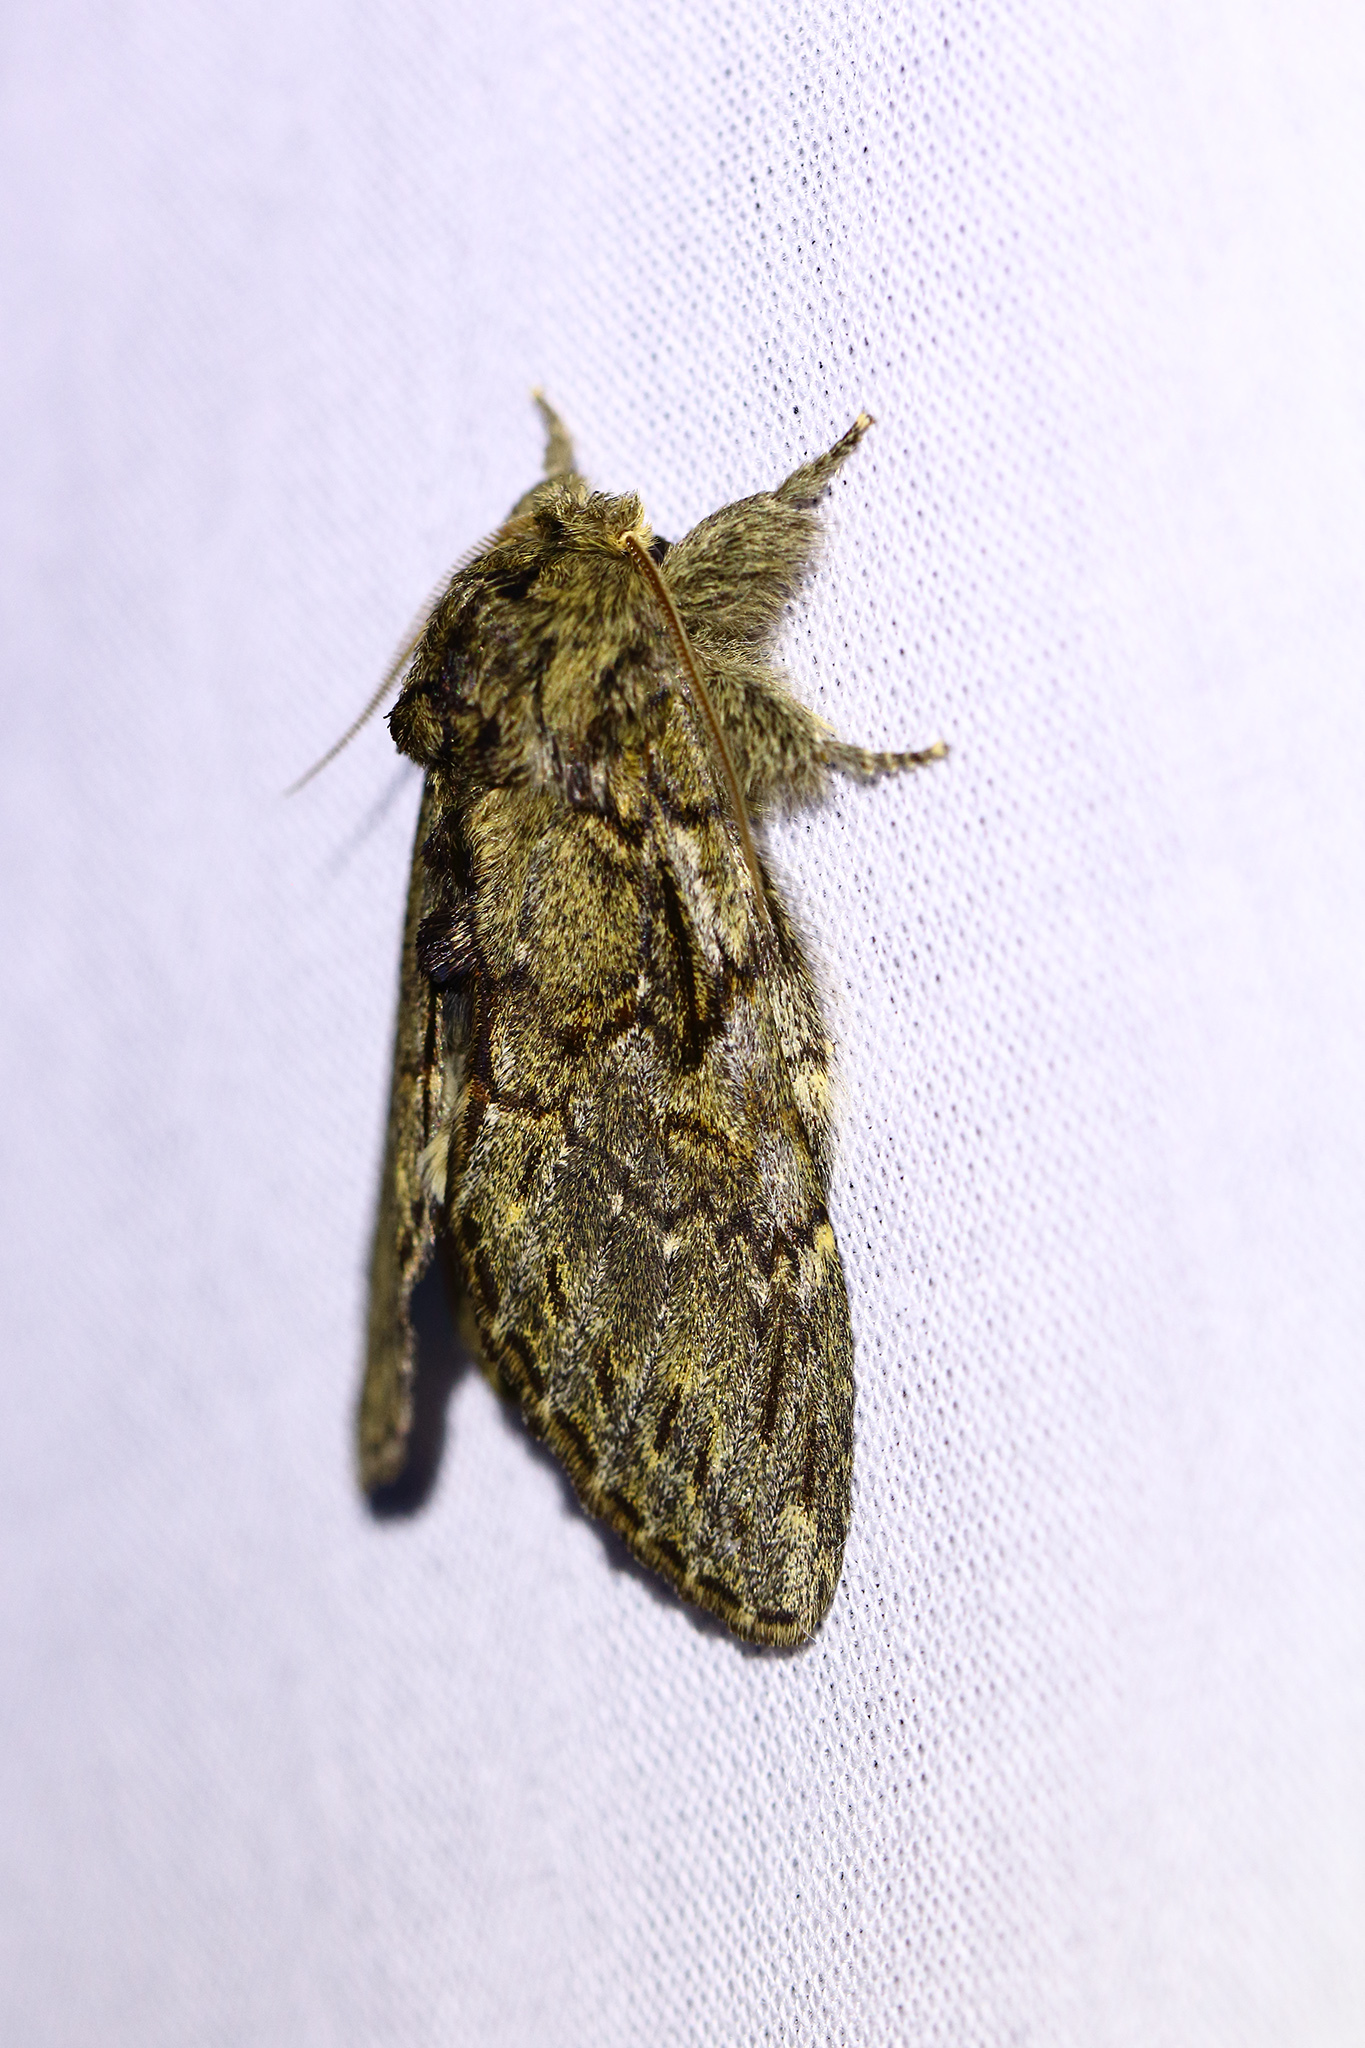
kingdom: Animalia
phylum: Arthropoda
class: Insecta
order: Lepidoptera
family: Notodontidae
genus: Peridea
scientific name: Peridea anceps
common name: Great prominent
